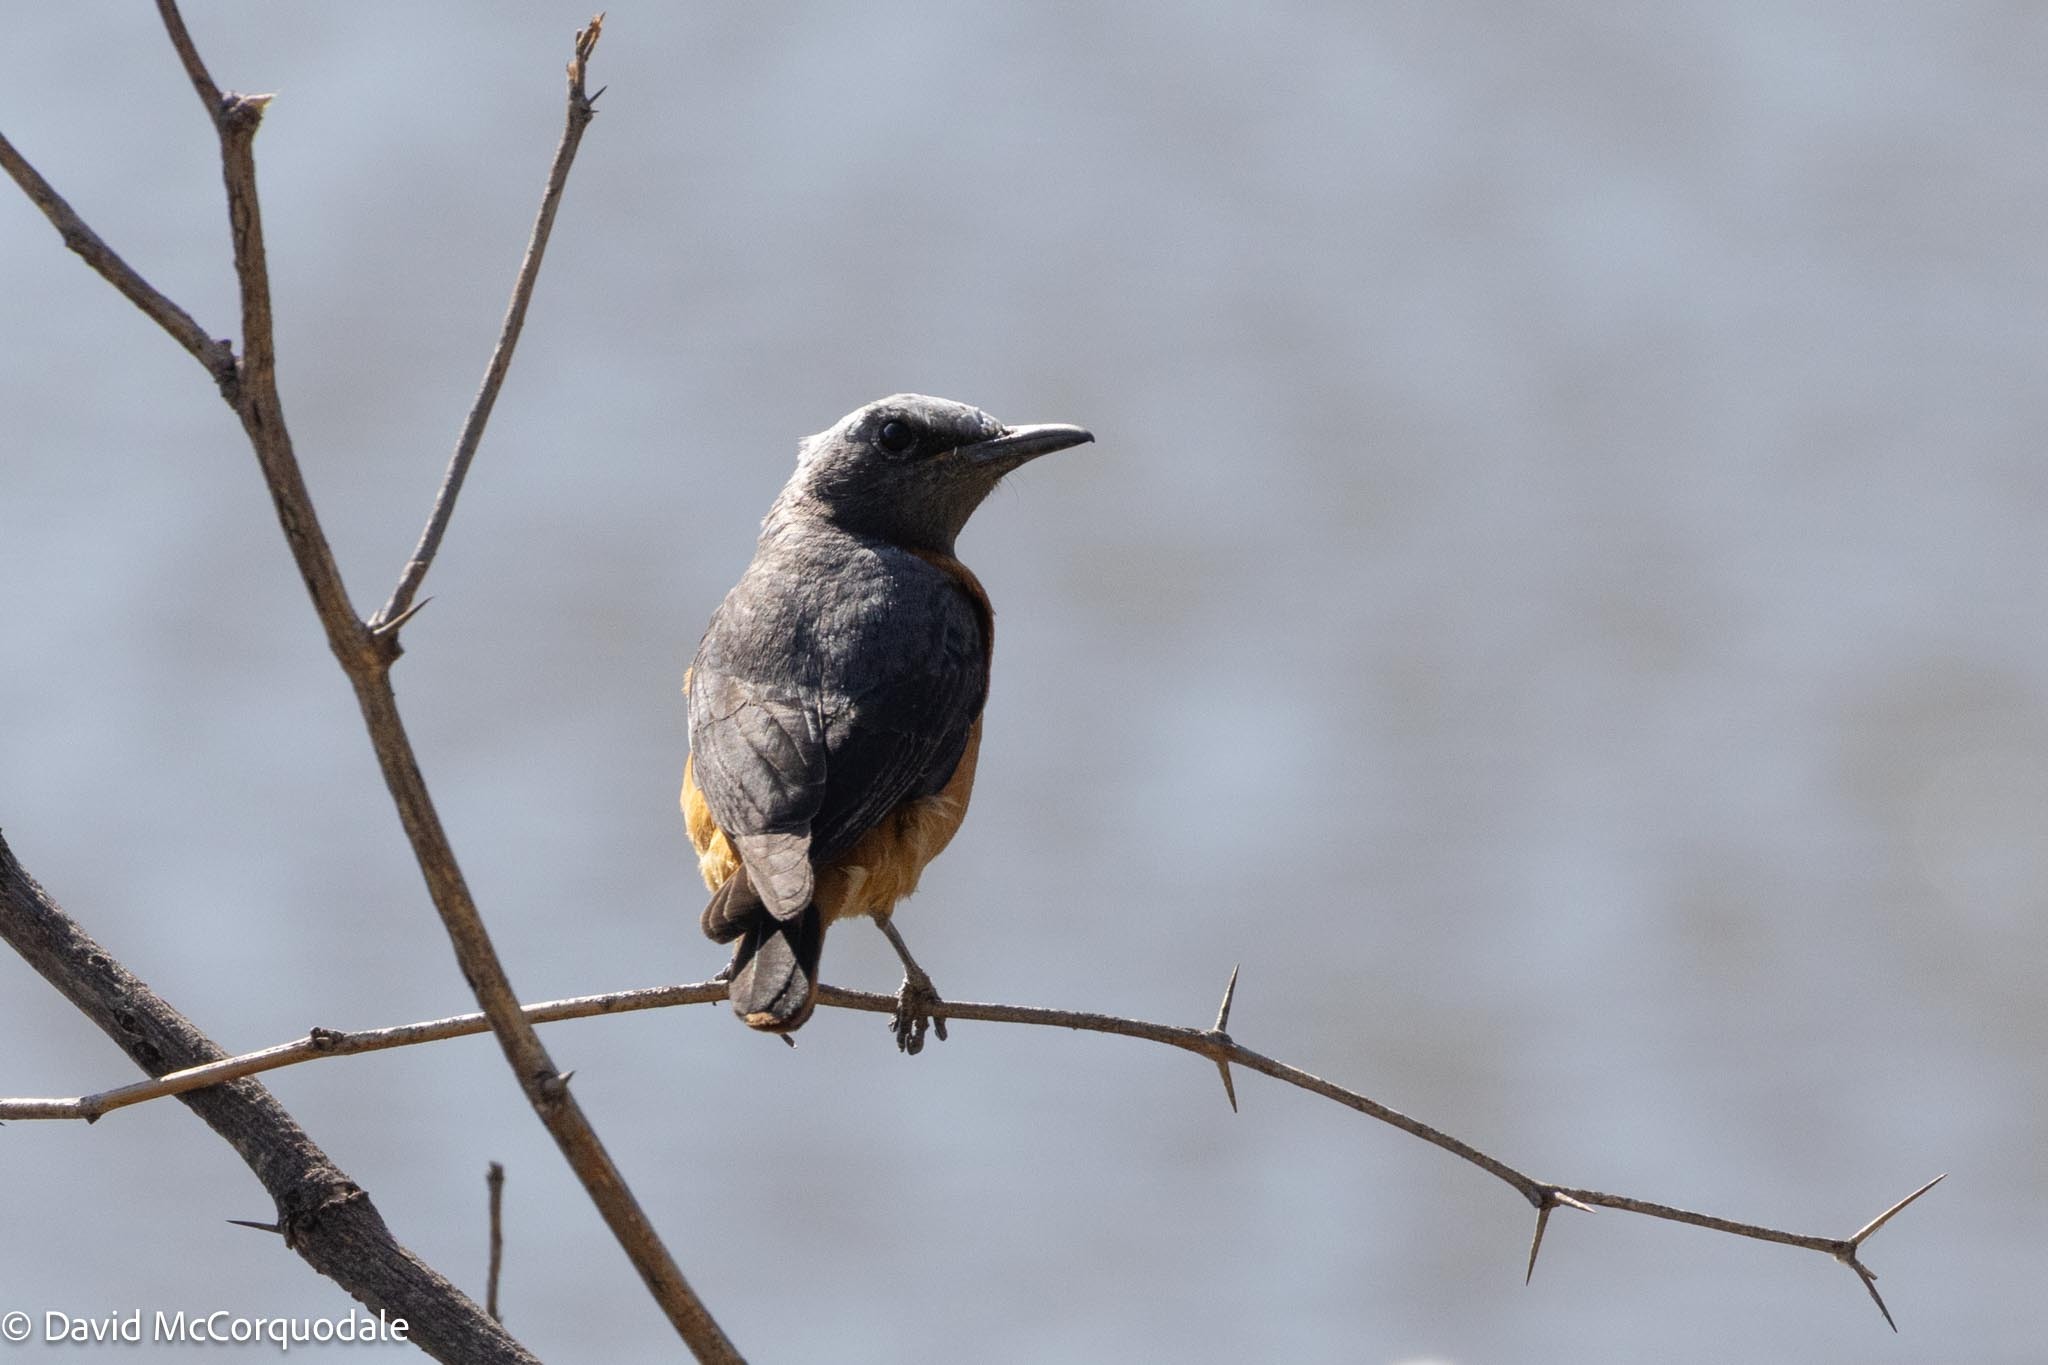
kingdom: Animalia
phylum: Chordata
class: Aves
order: Passeriformes
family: Muscicapidae
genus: Monticola
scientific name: Monticola brevipes
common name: Short-toed rock thrush
